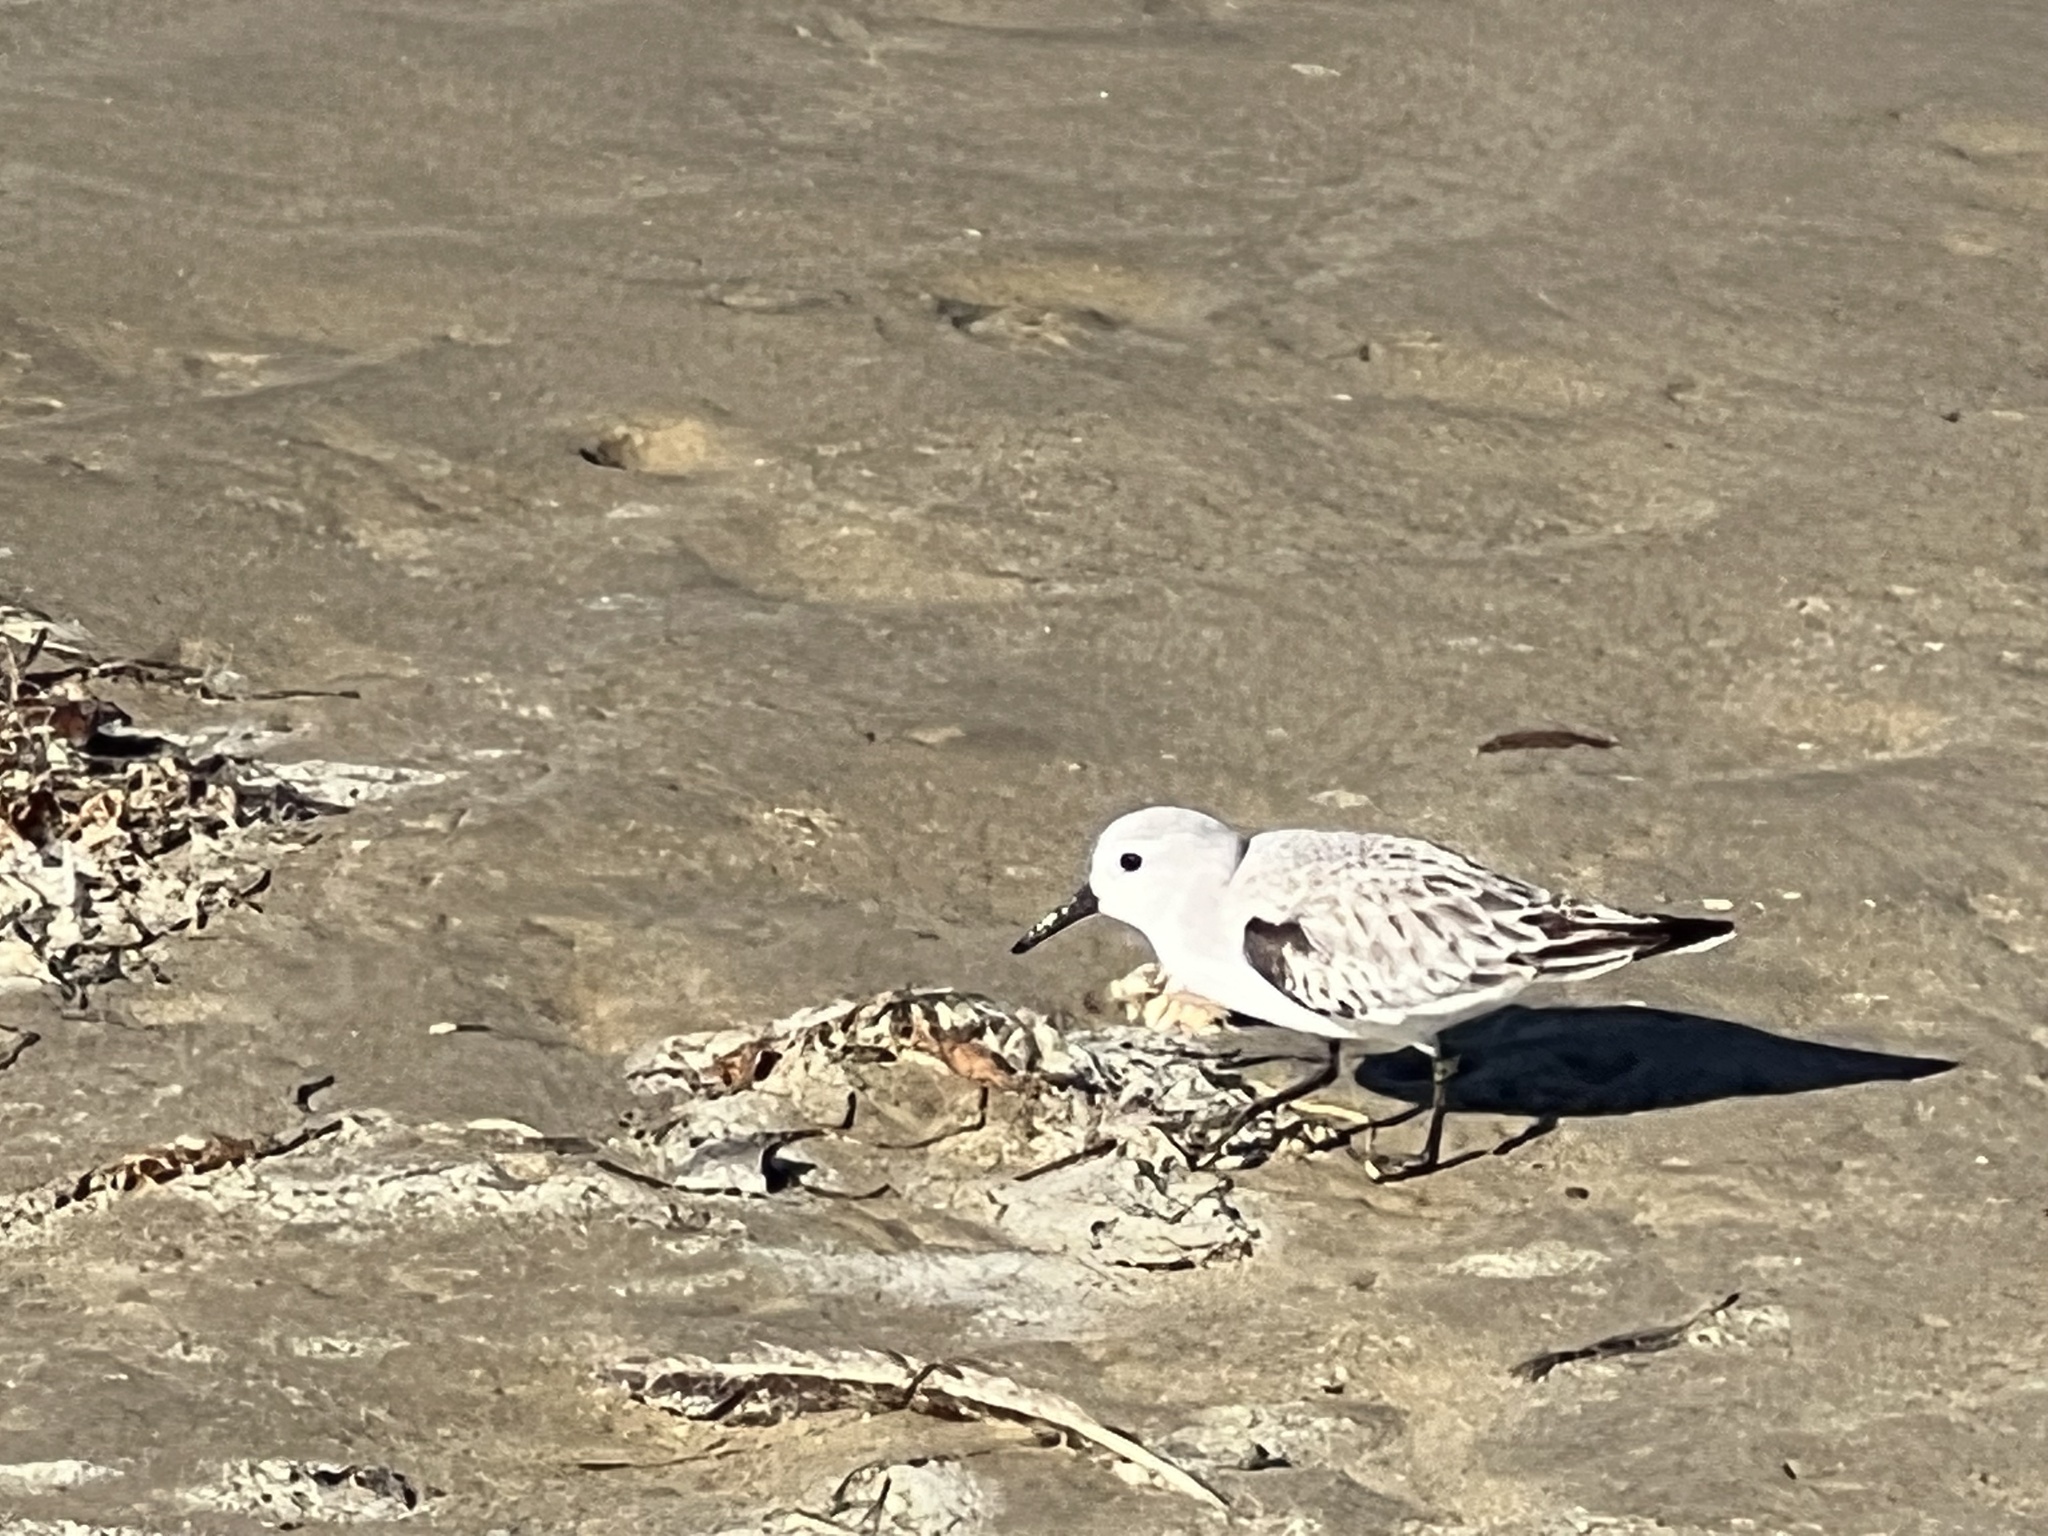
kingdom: Animalia
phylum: Chordata
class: Aves
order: Charadriiformes
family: Scolopacidae
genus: Calidris
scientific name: Calidris alba
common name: Sanderling
